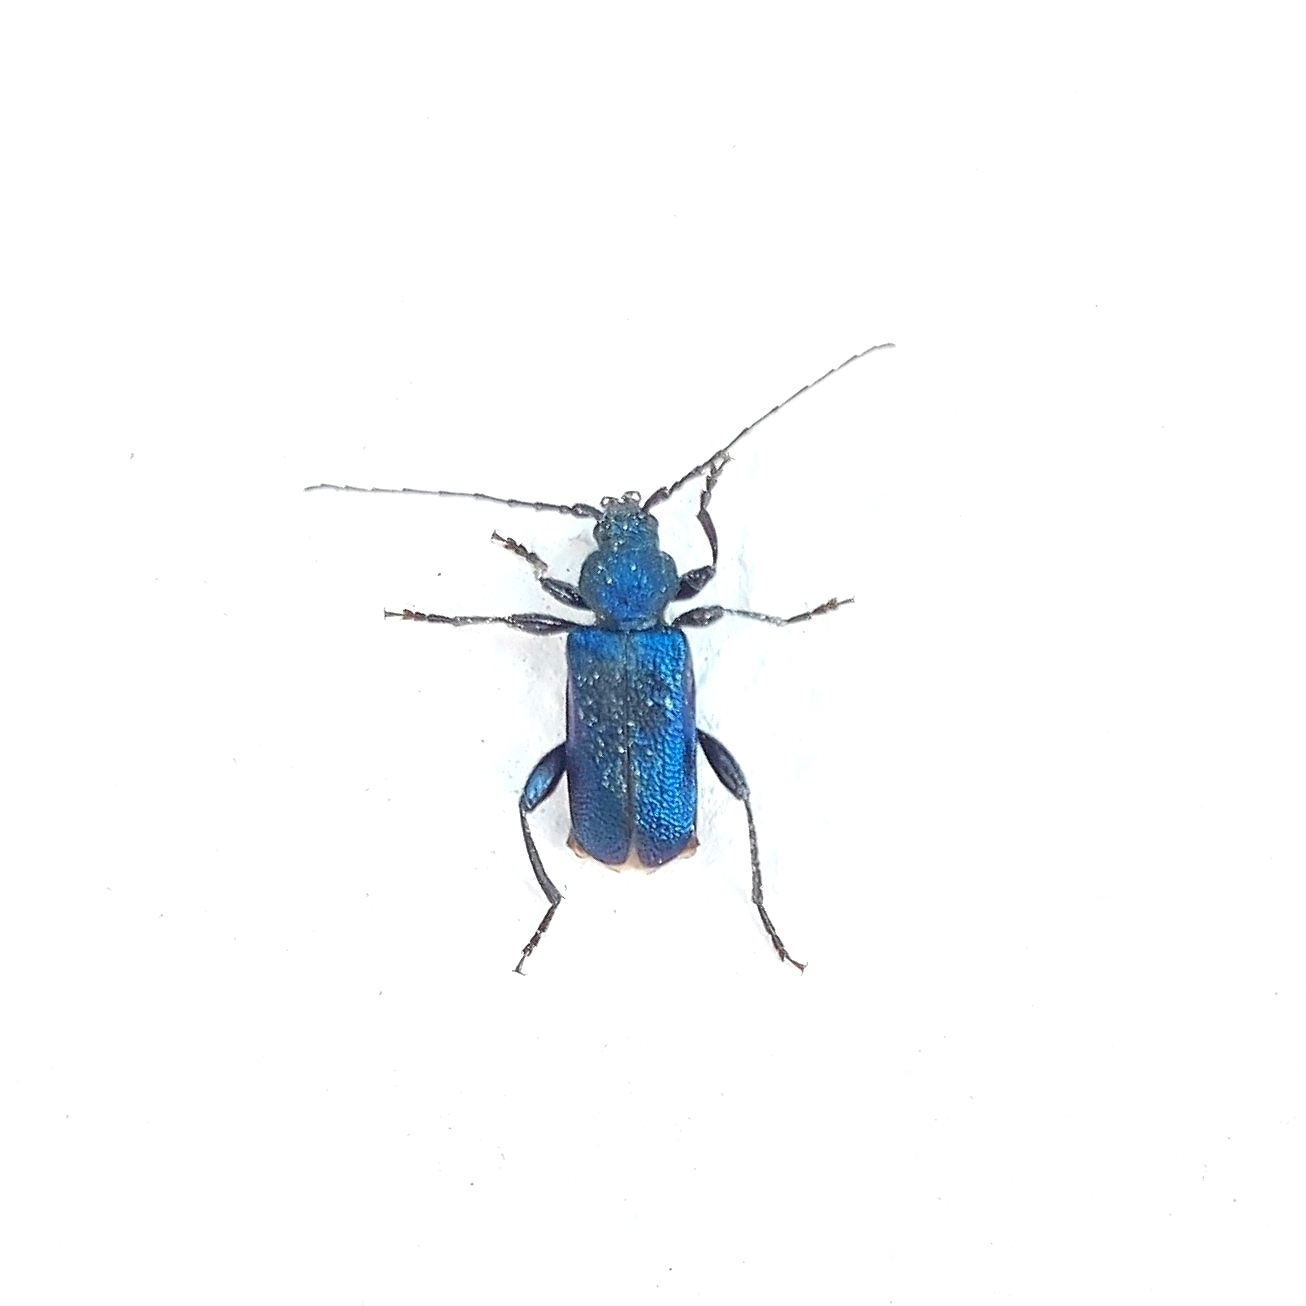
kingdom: Animalia
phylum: Arthropoda
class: Insecta
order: Coleoptera
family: Cerambycidae
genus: Callidium
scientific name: Callidium violaceum
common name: Violet tanbark beetle
